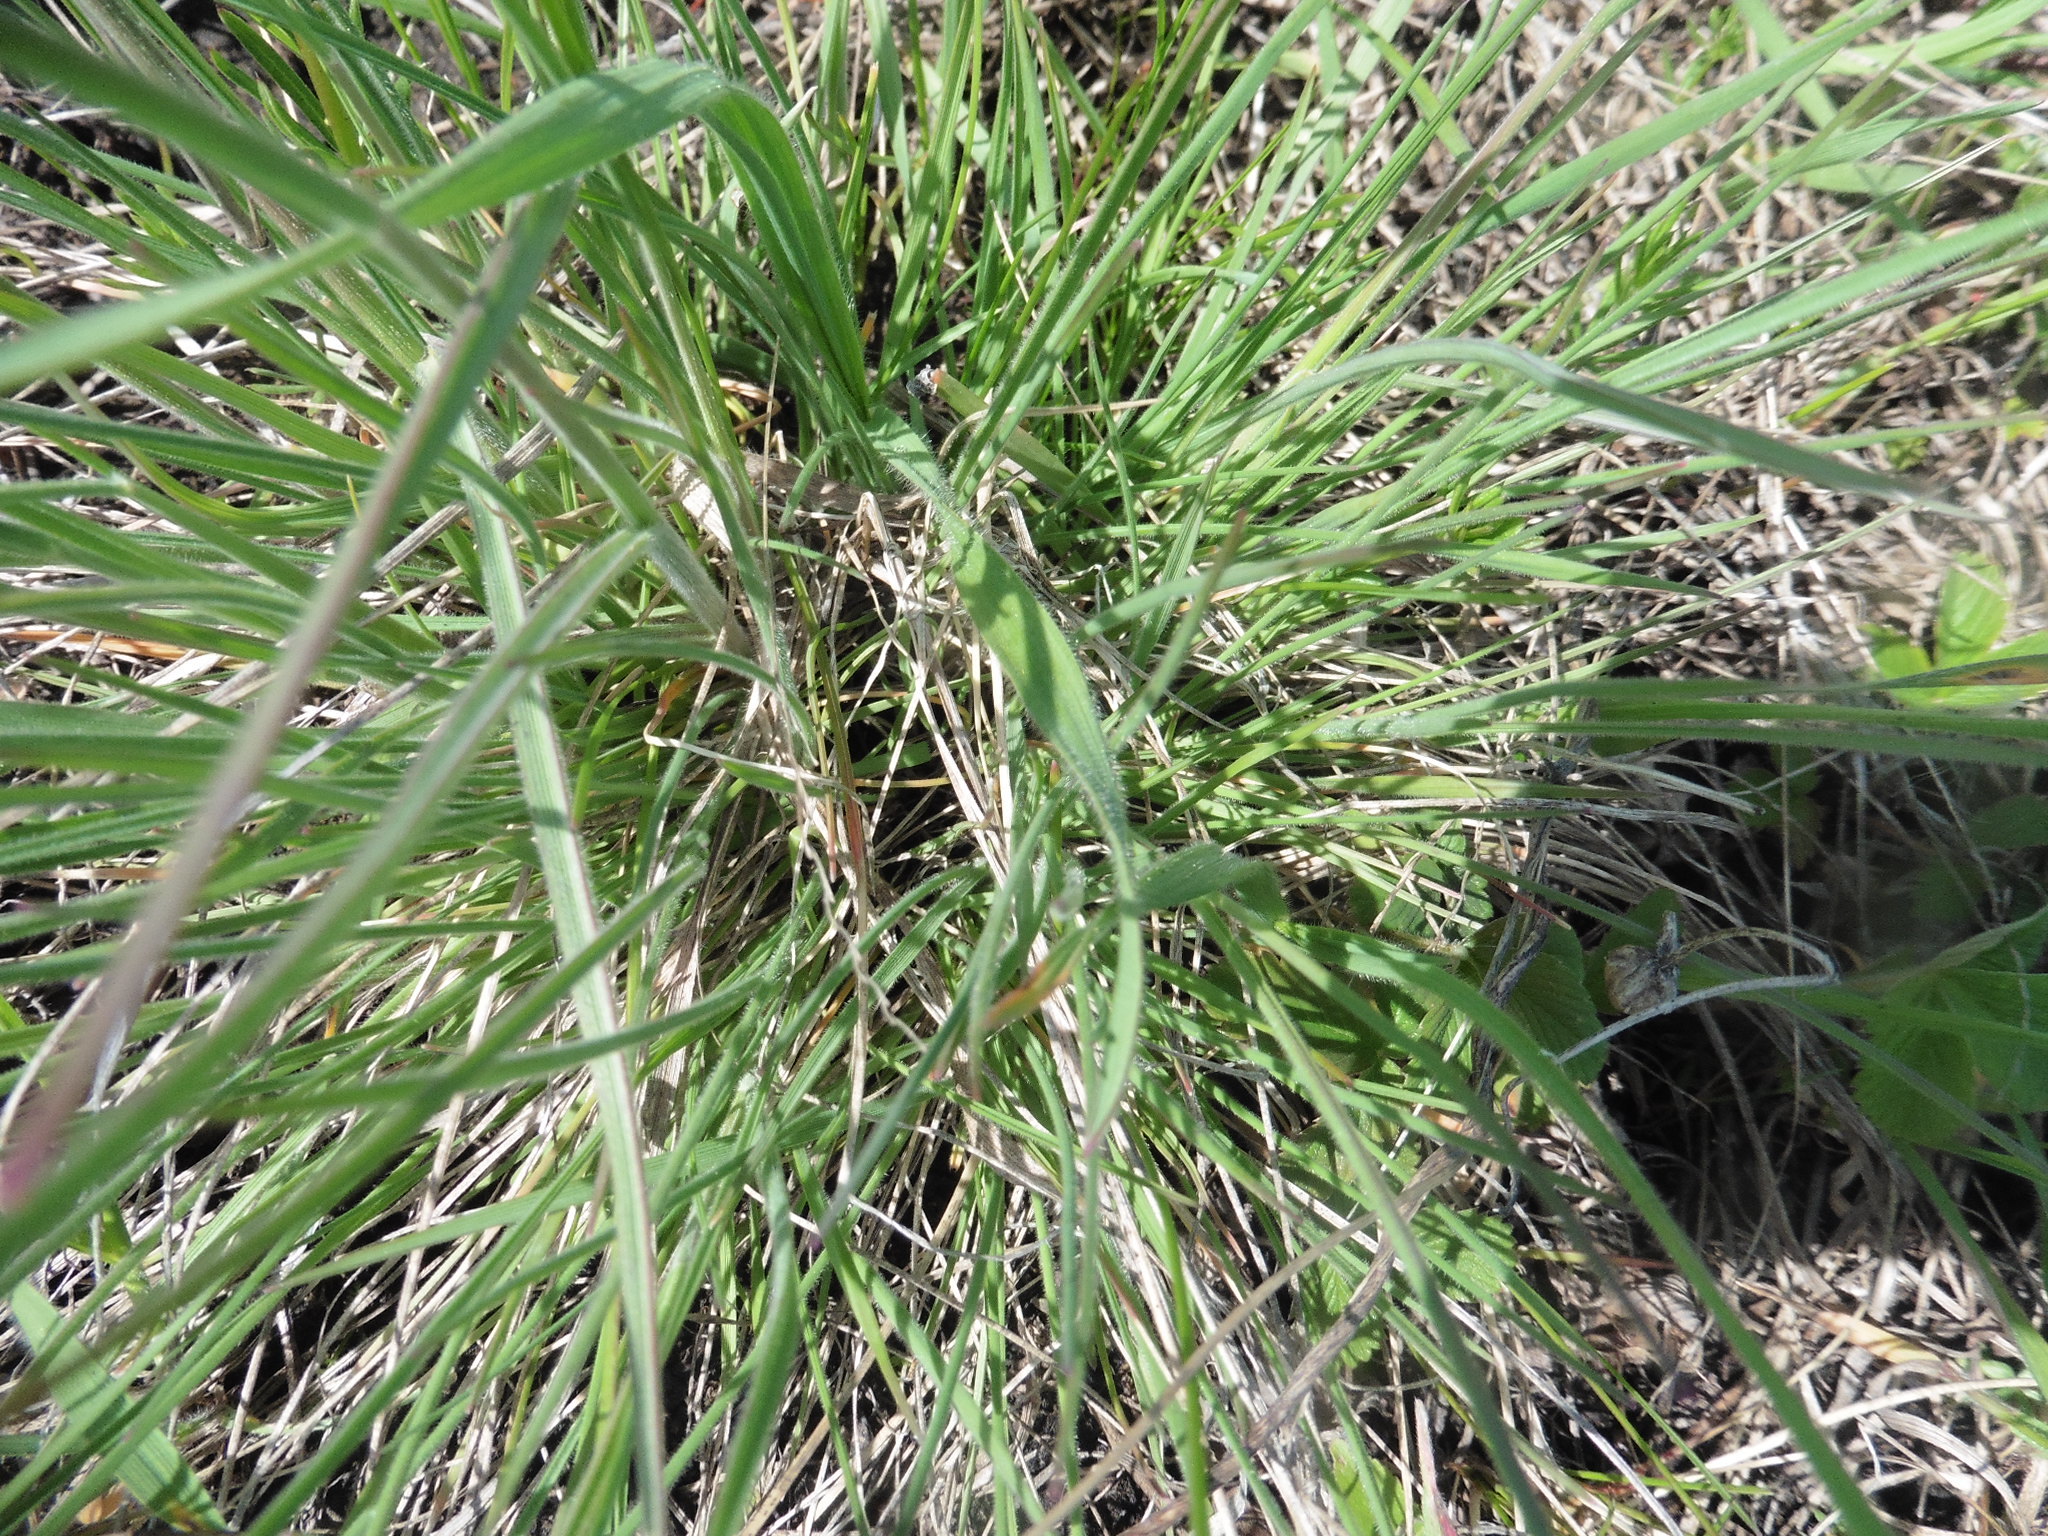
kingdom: Plantae
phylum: Tracheophyta
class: Liliopsida
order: Poales
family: Poaceae
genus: Bromus
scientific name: Bromus riparius
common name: Meadow brome
